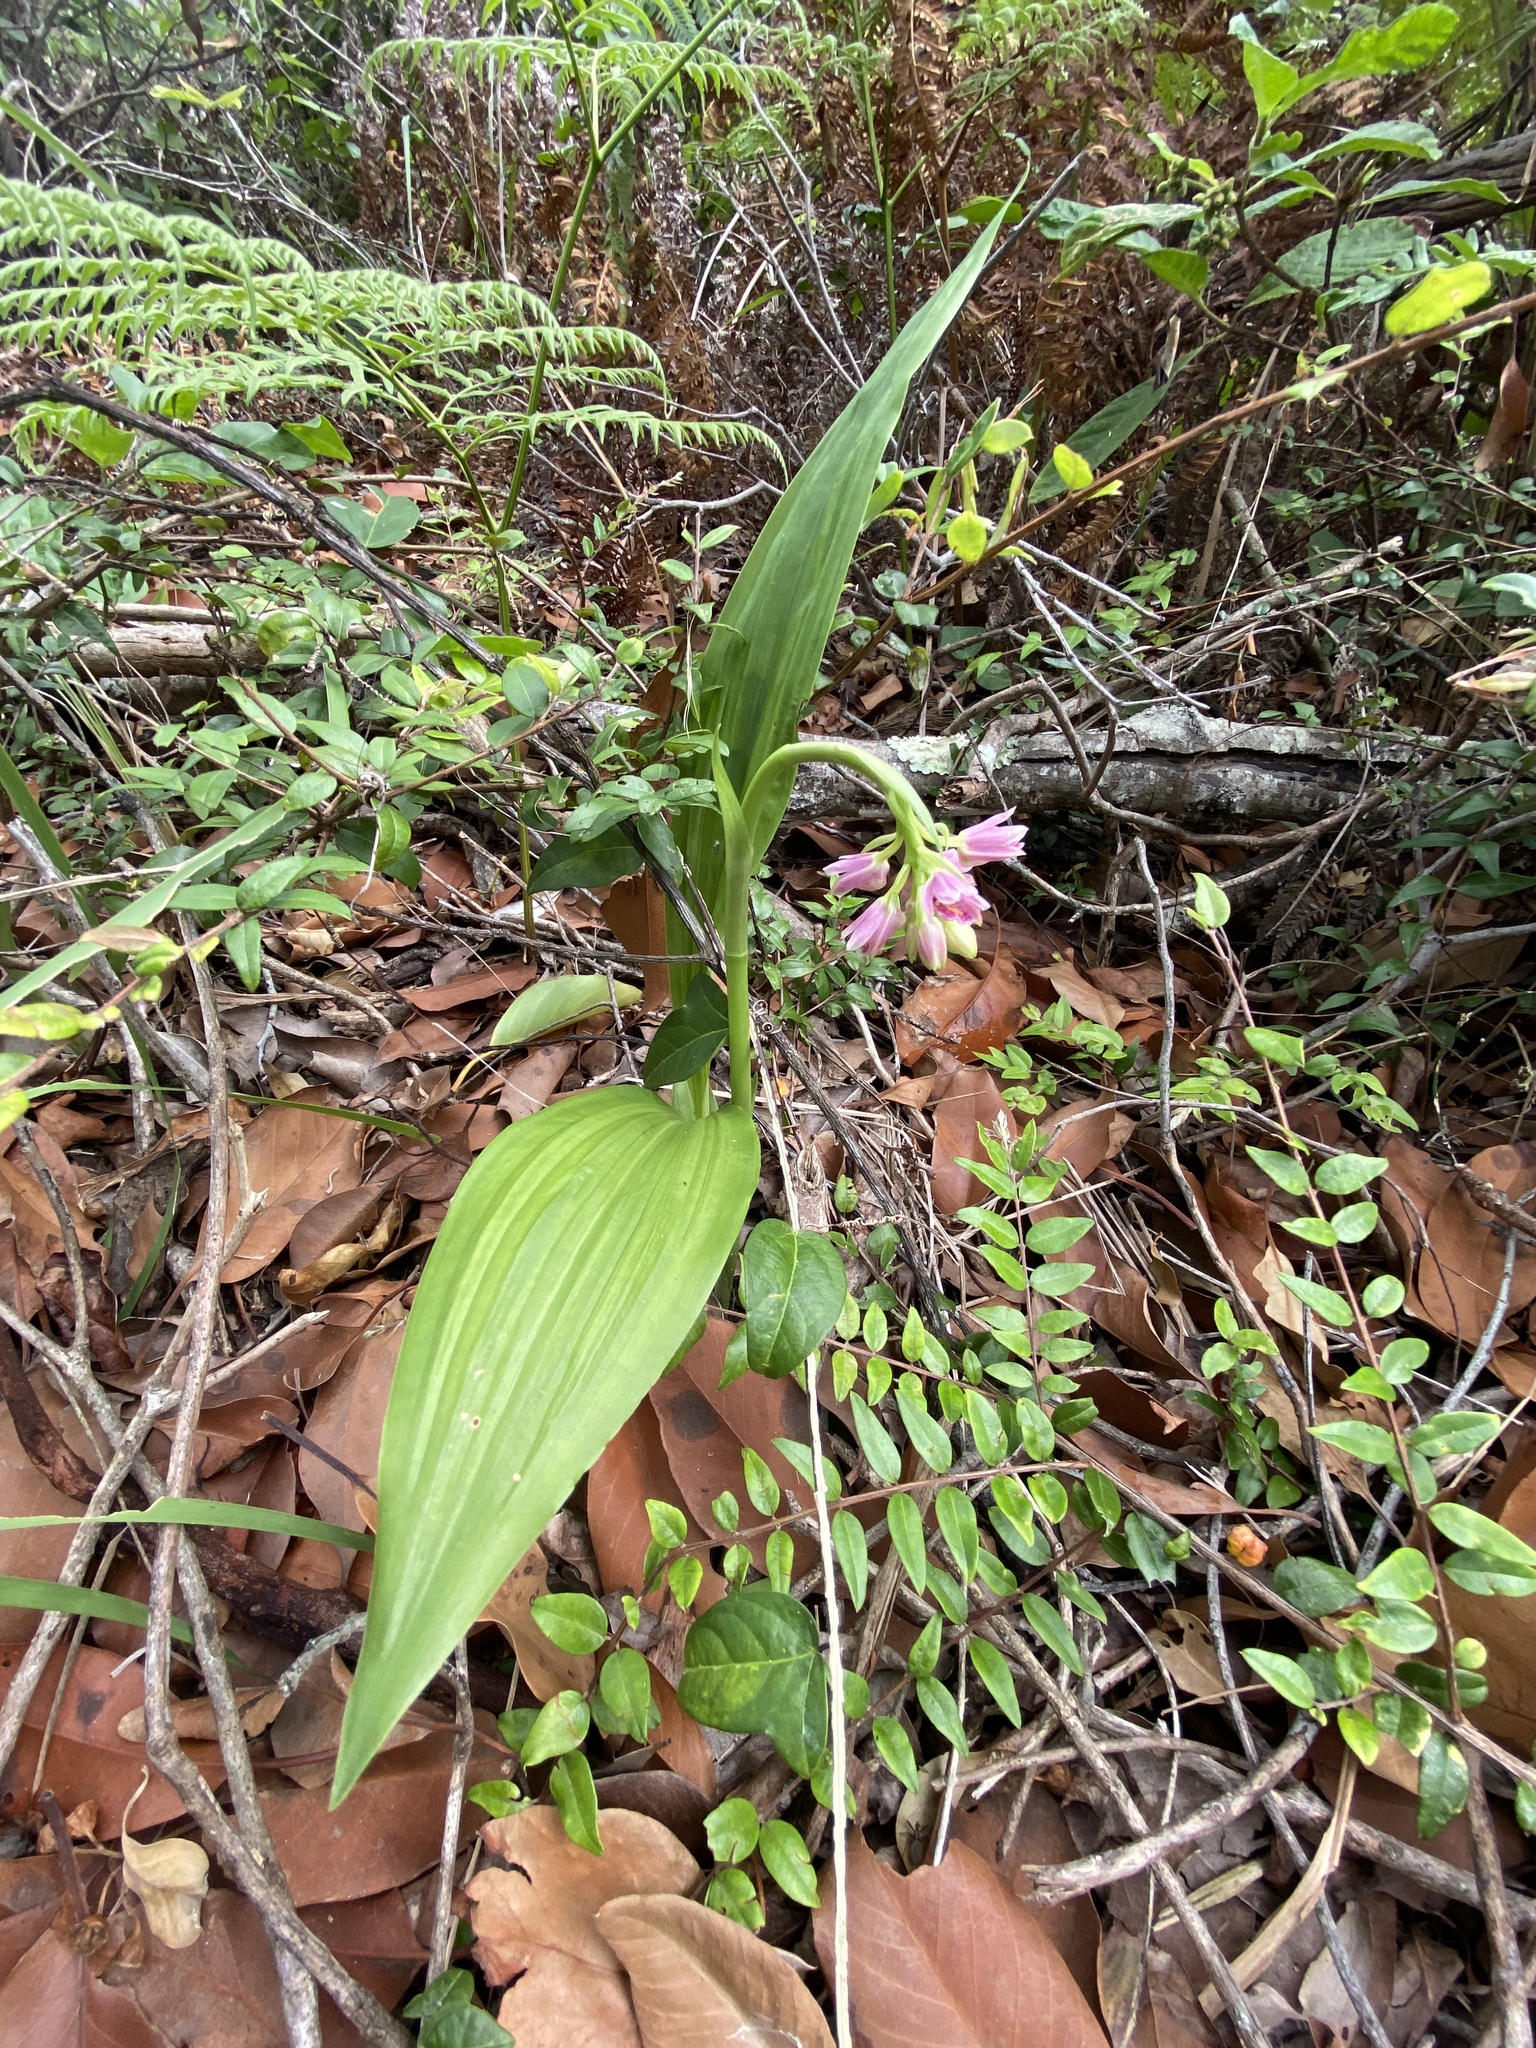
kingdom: Plantae
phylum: Tracheophyta
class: Liliopsida
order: Asparagales
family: Orchidaceae
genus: Eulophia
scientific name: Eulophia cernua
